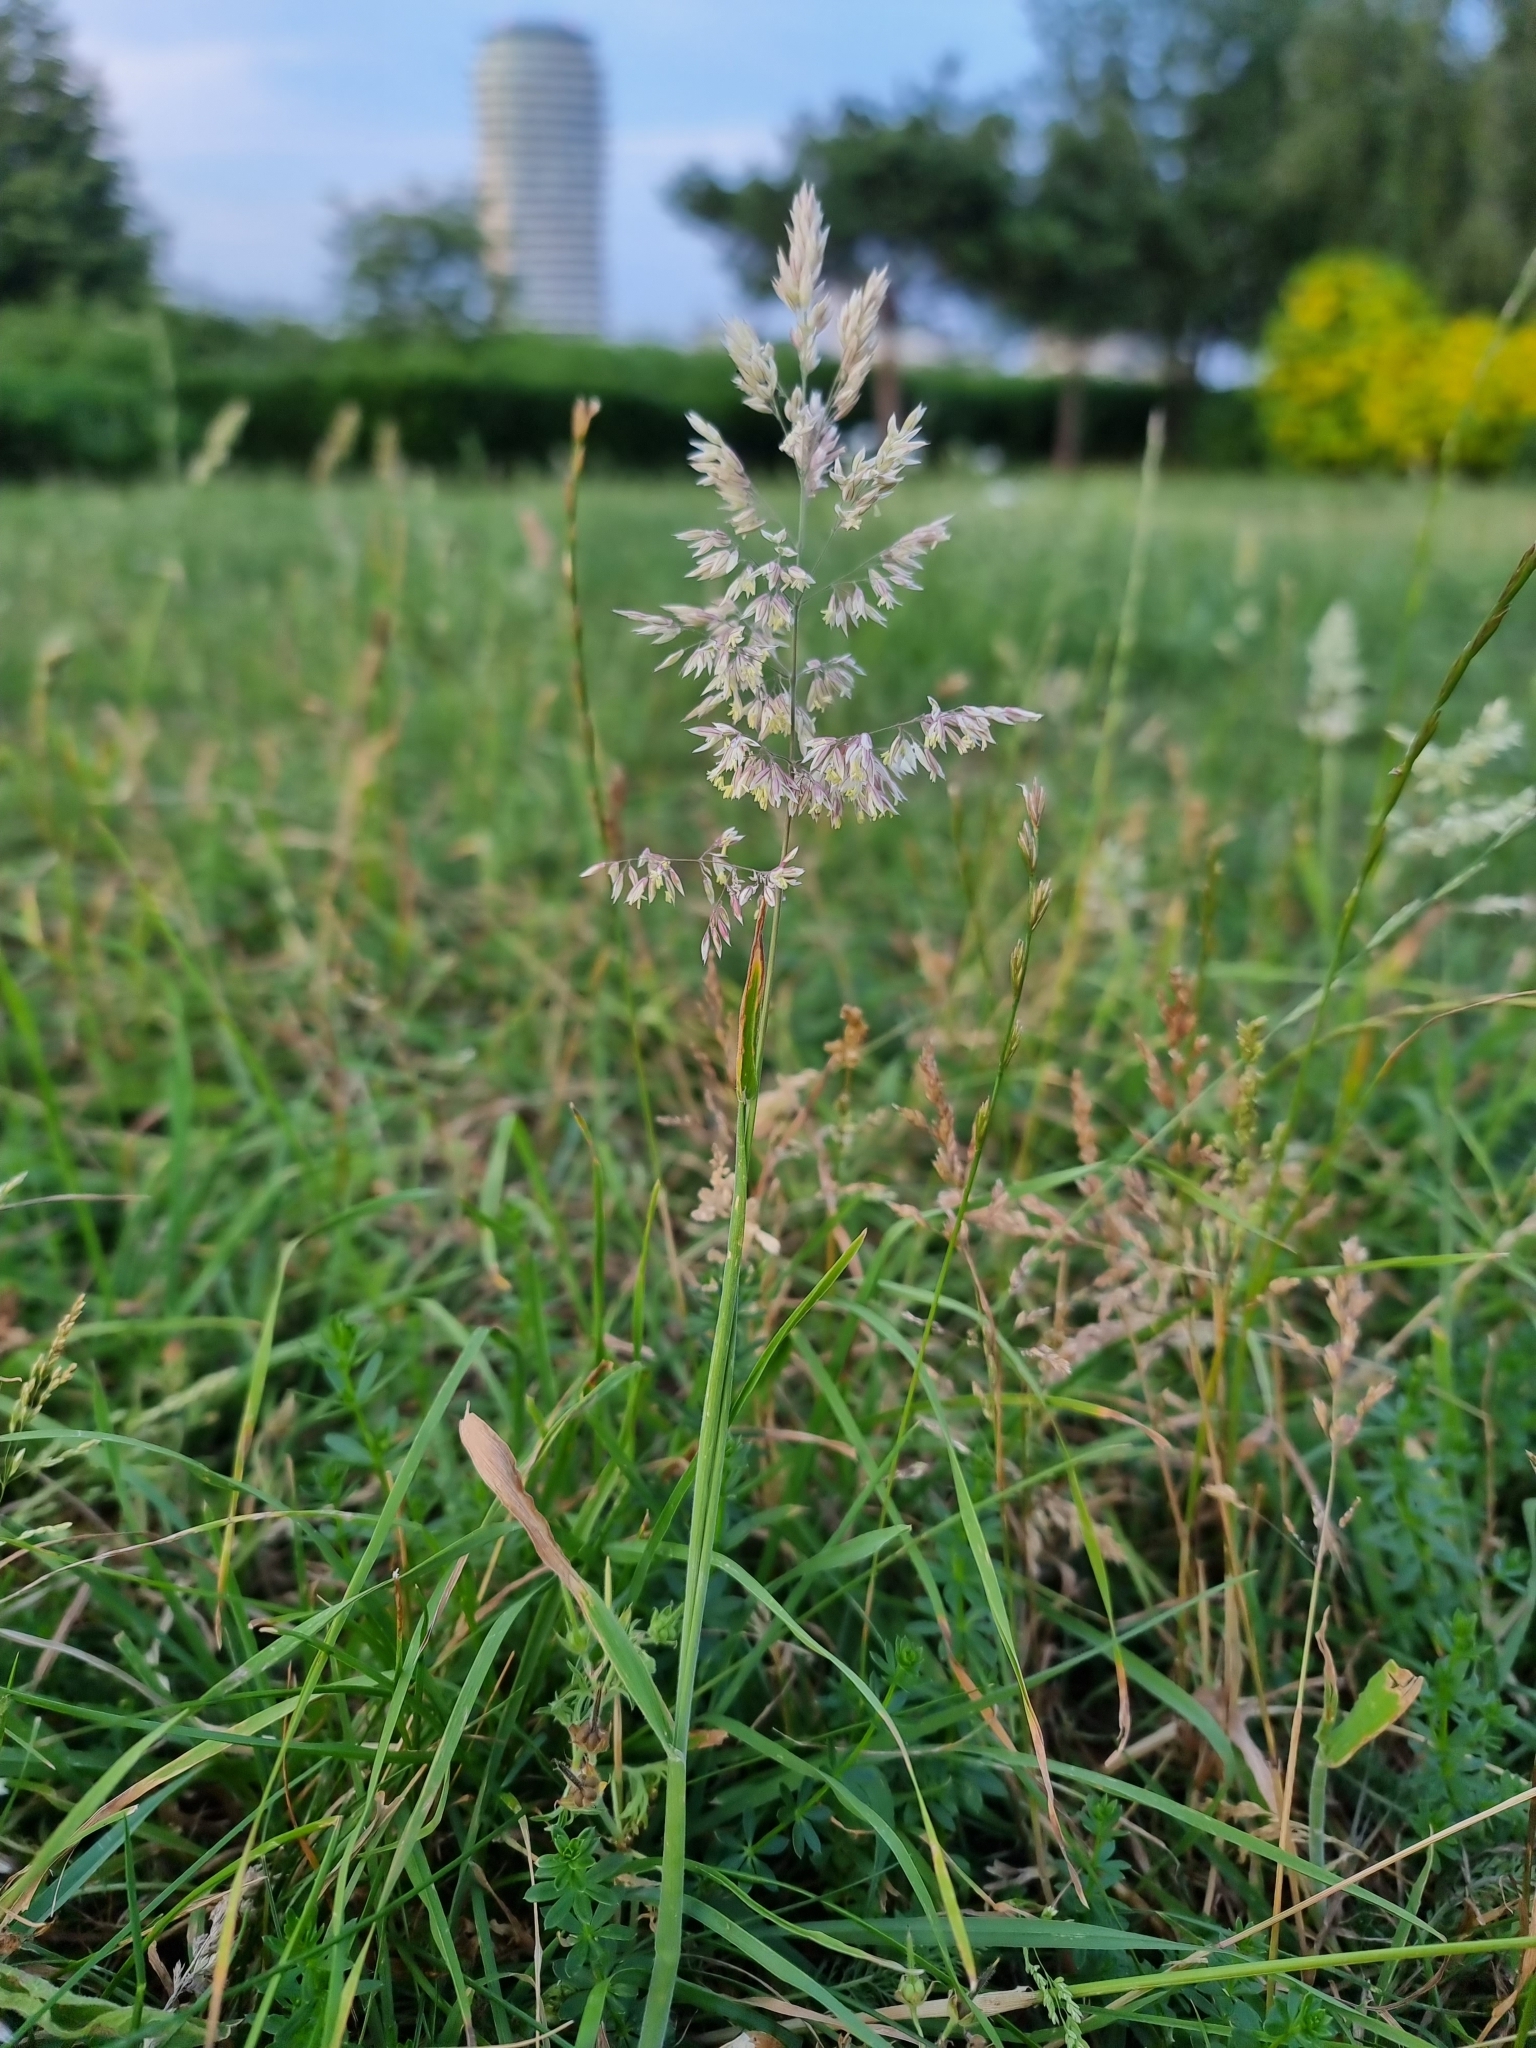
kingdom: Plantae
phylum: Tracheophyta
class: Liliopsida
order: Poales
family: Poaceae
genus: Holcus
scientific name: Holcus lanatus
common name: Yorkshire-fog
